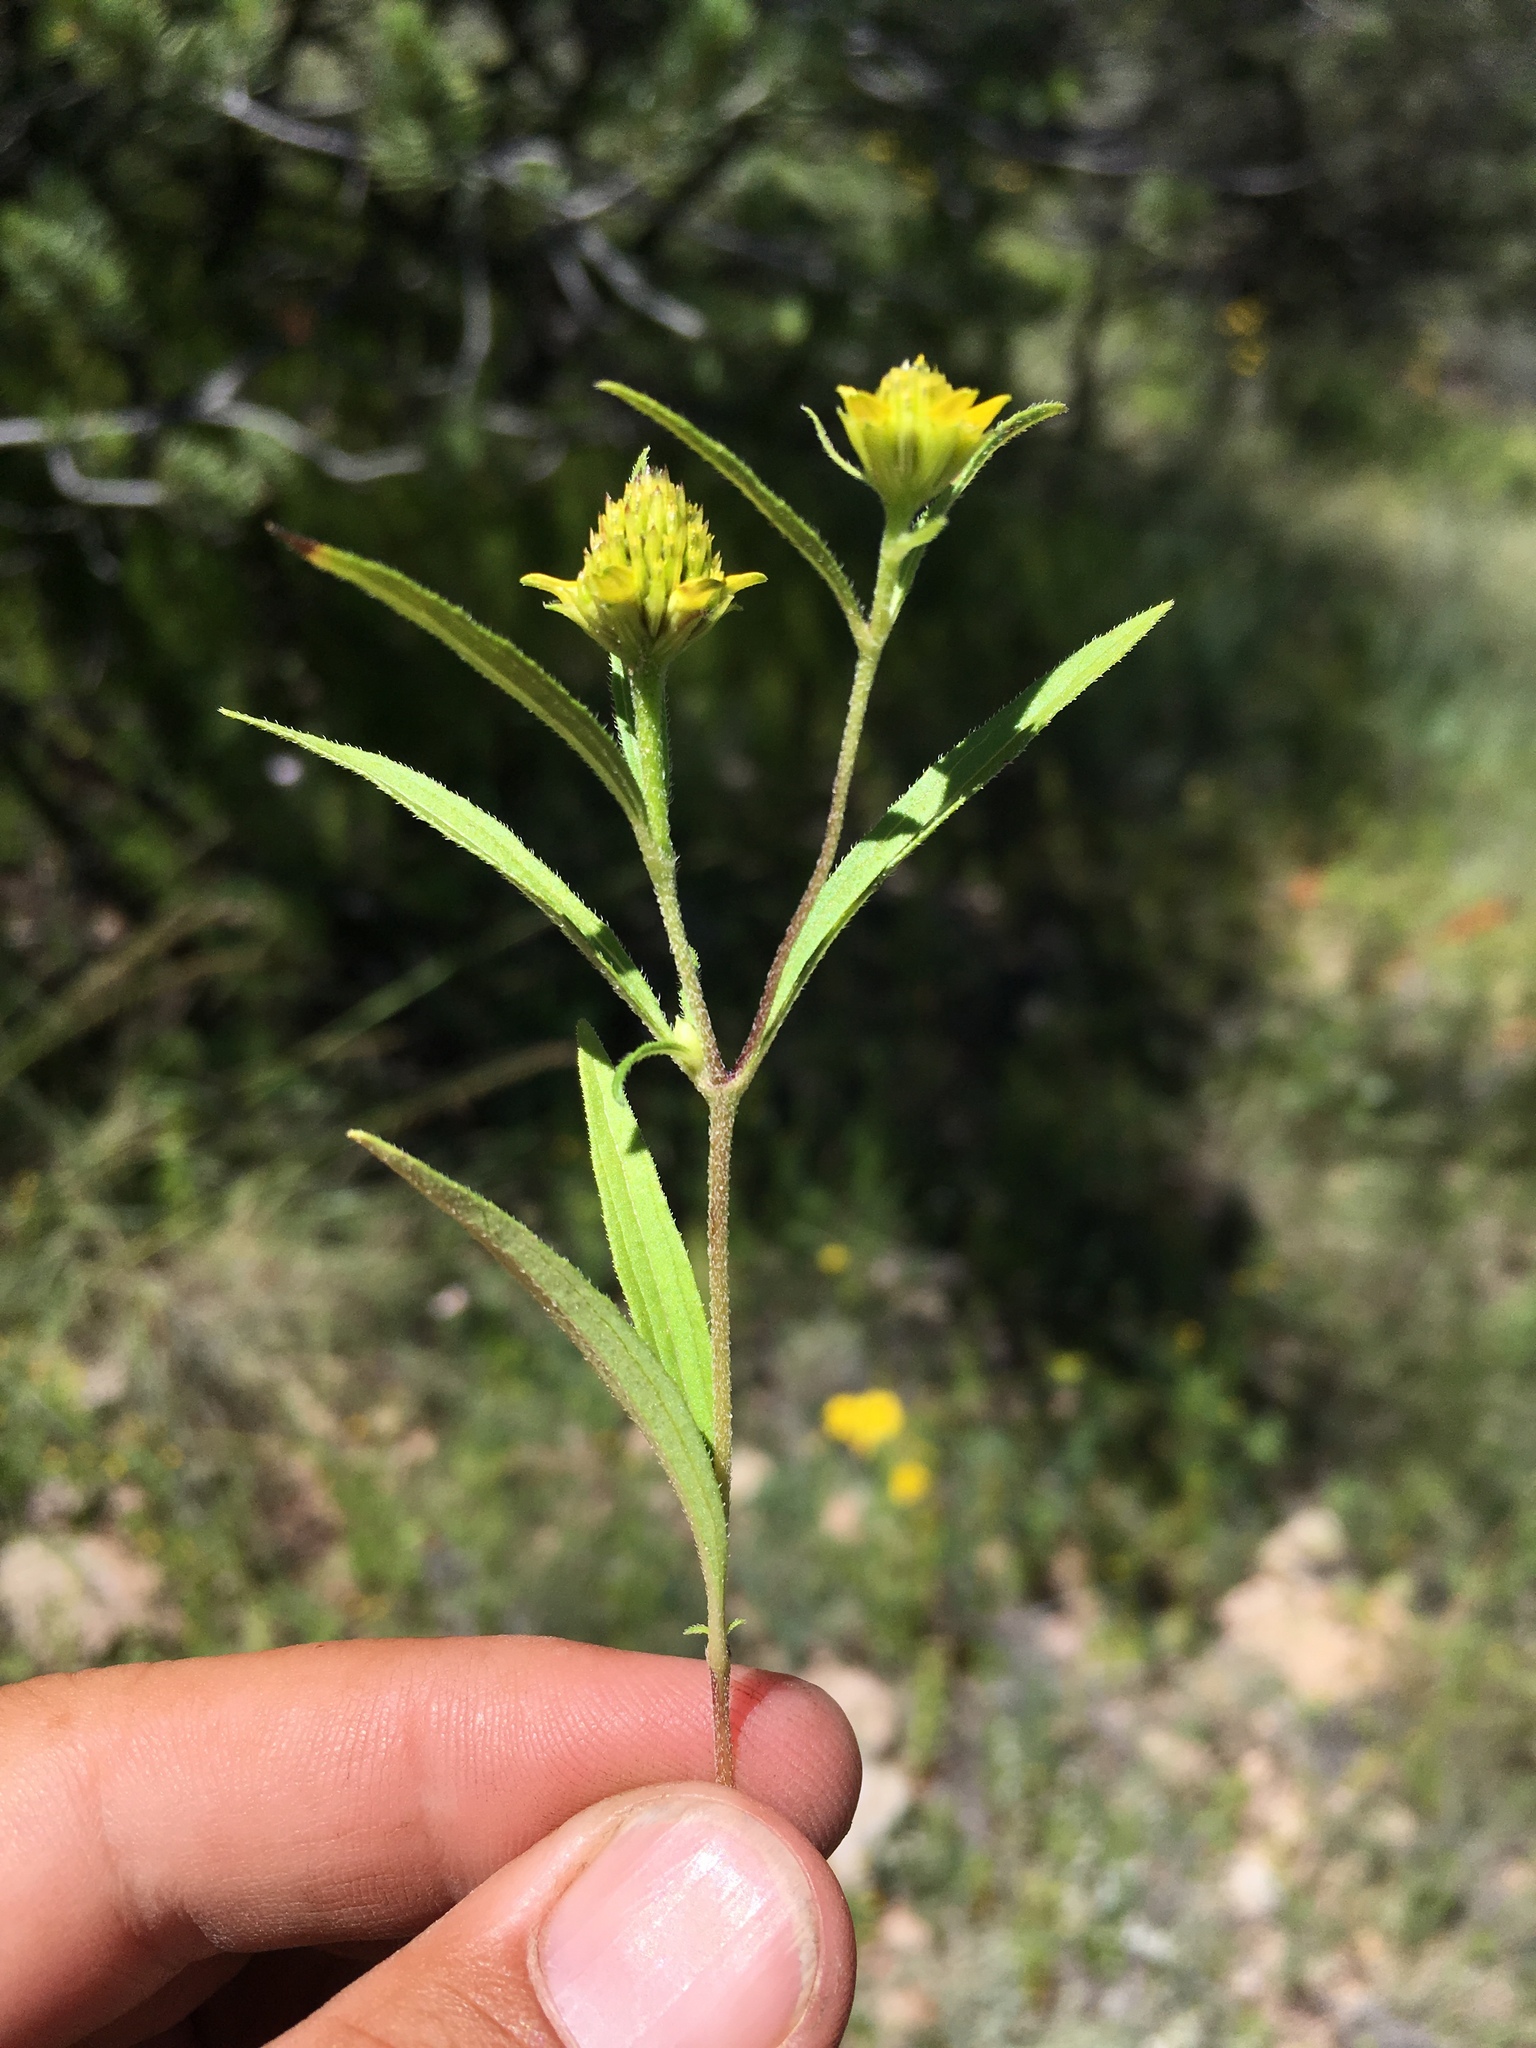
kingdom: Plantae
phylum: Tracheophyta
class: Magnoliopsida
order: Asterales
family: Asteraceae
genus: Sanvitalia
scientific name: Sanvitalia abertii
